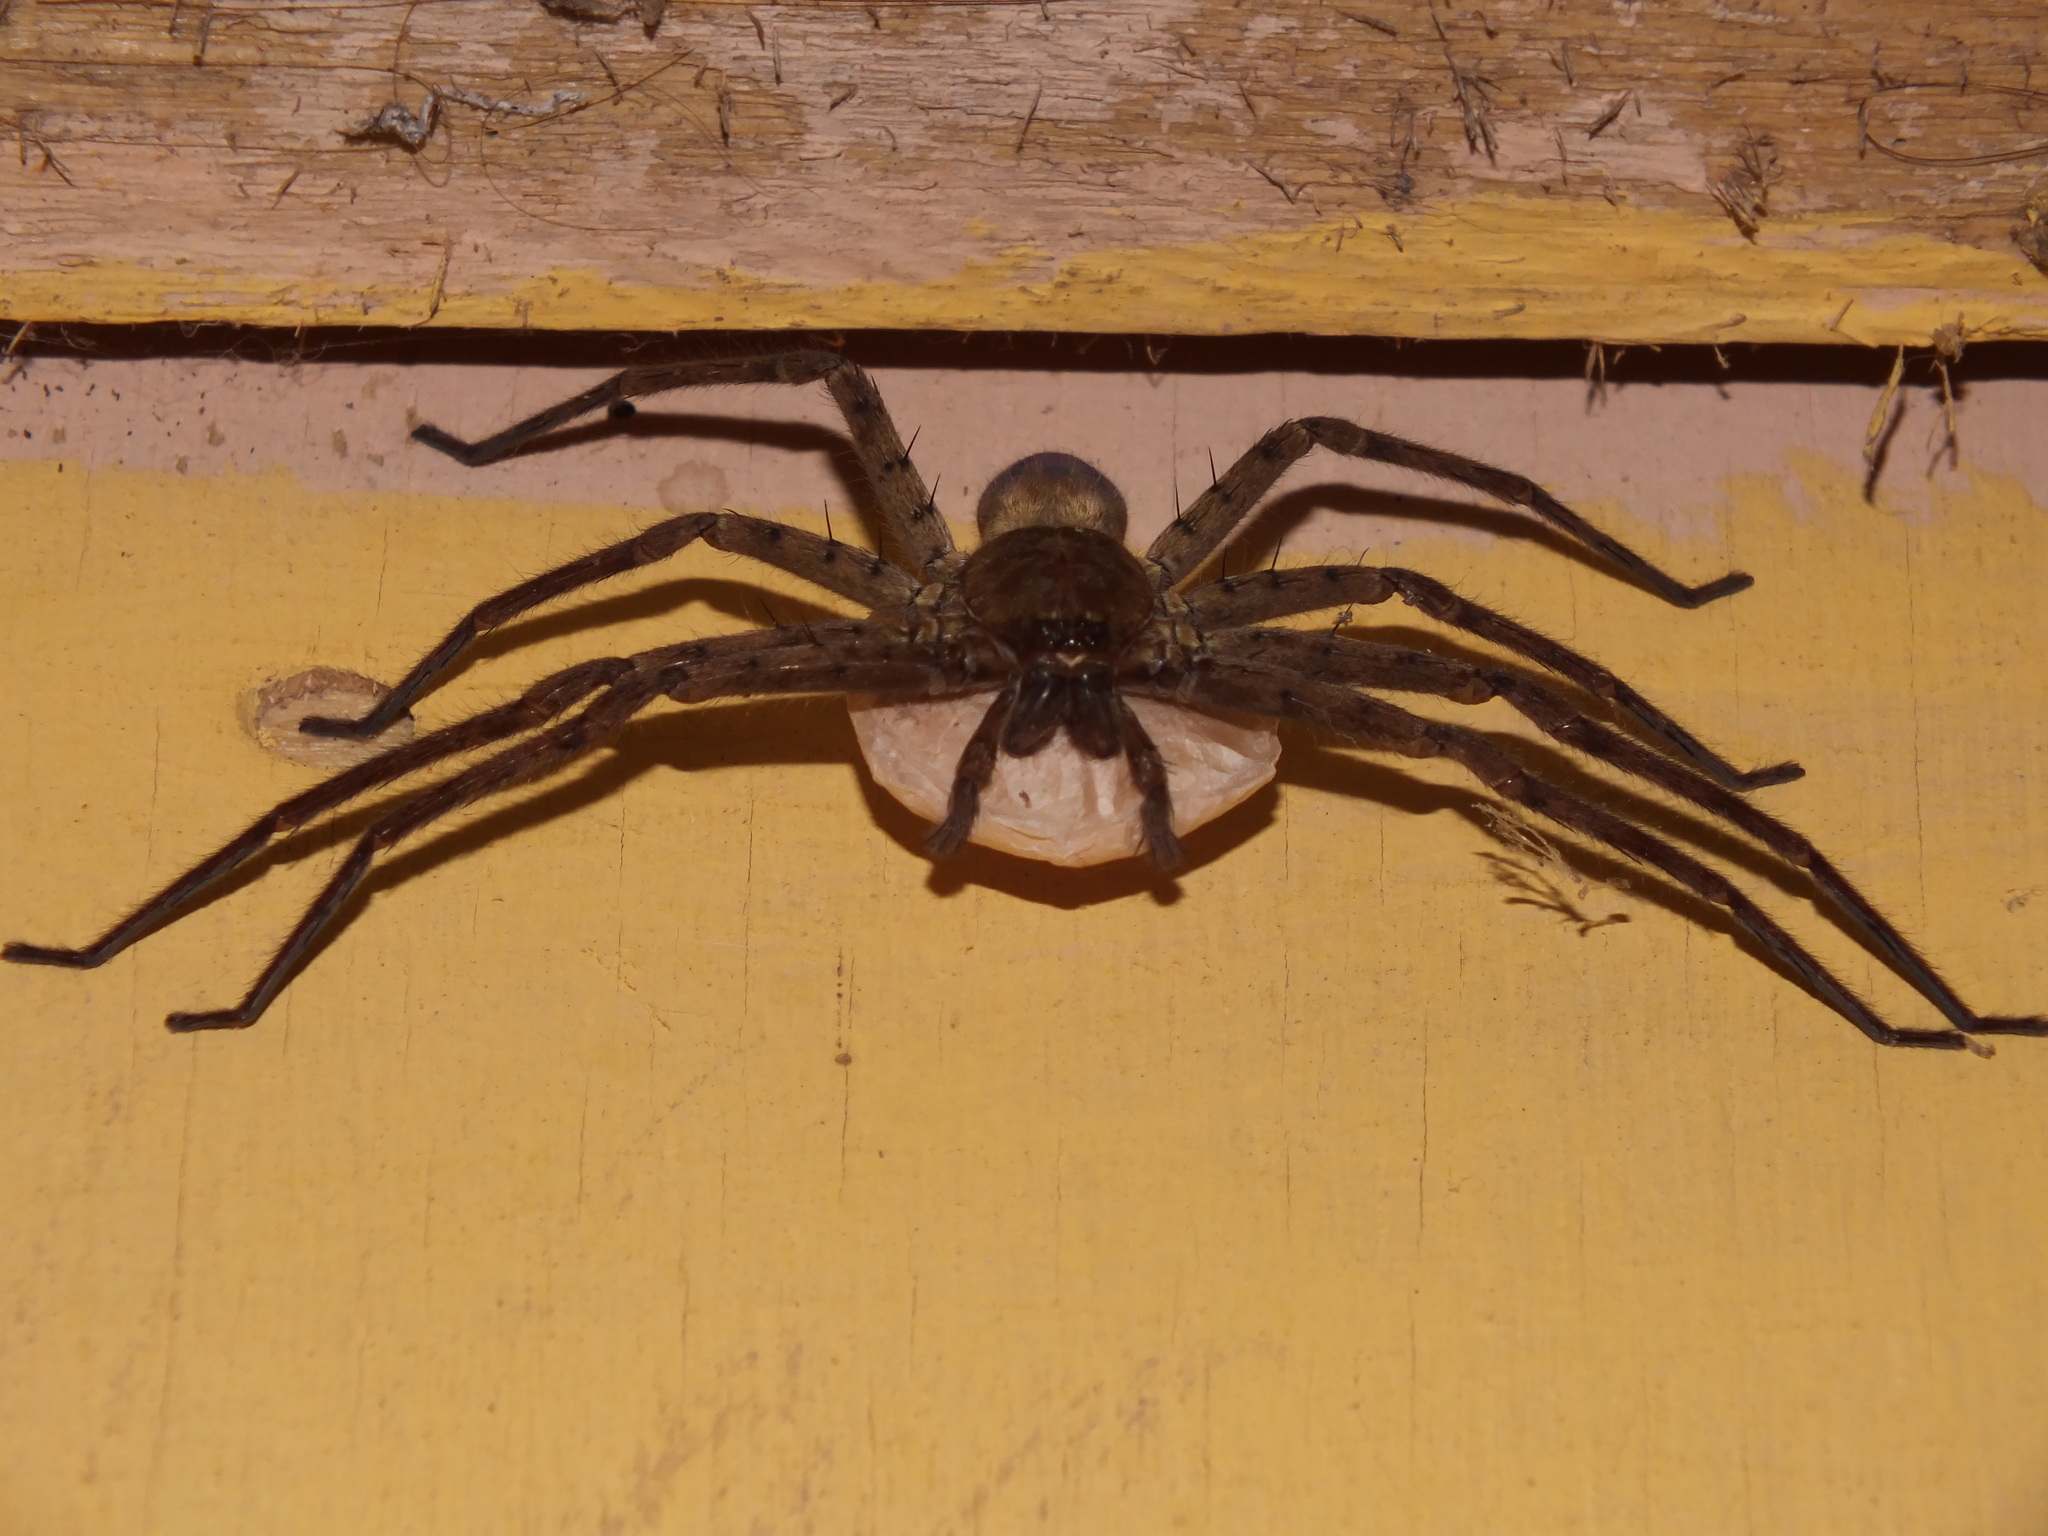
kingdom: Animalia
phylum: Arthropoda
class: Arachnida
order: Araneae
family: Sparassidae
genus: Heteropoda
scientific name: Heteropoda venatoria
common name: Huntsman spider
